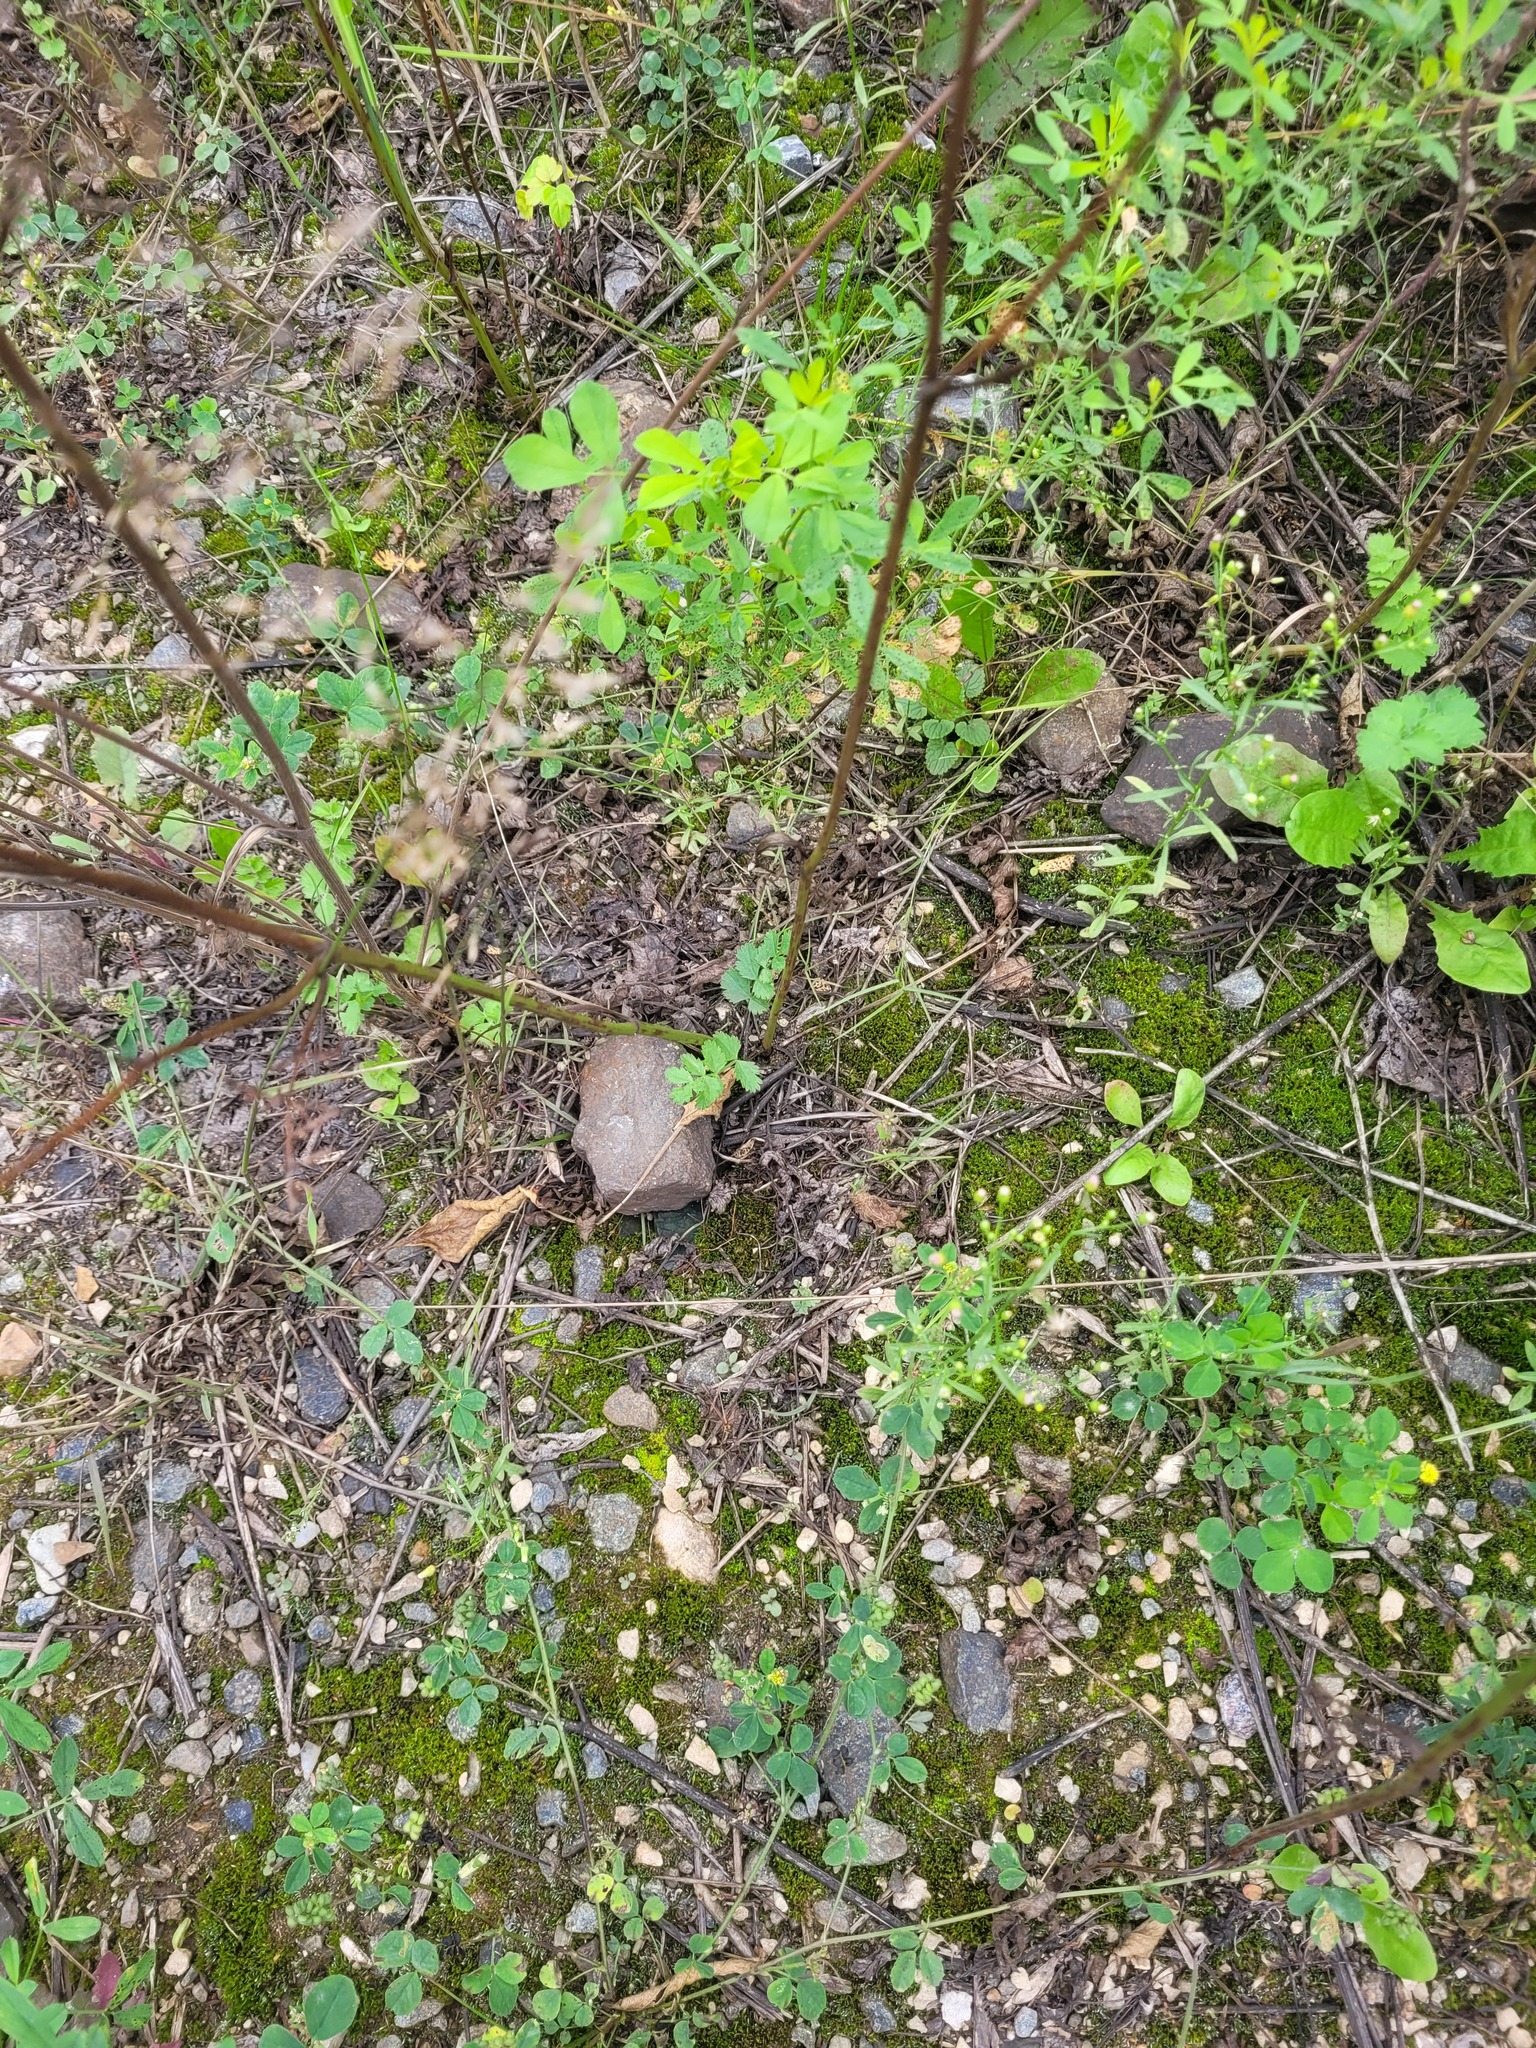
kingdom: Plantae
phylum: Tracheophyta
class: Magnoliopsida
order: Apiales
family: Apiaceae
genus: Pimpinella
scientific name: Pimpinella saxifraga
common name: Burnet-saxifrage
